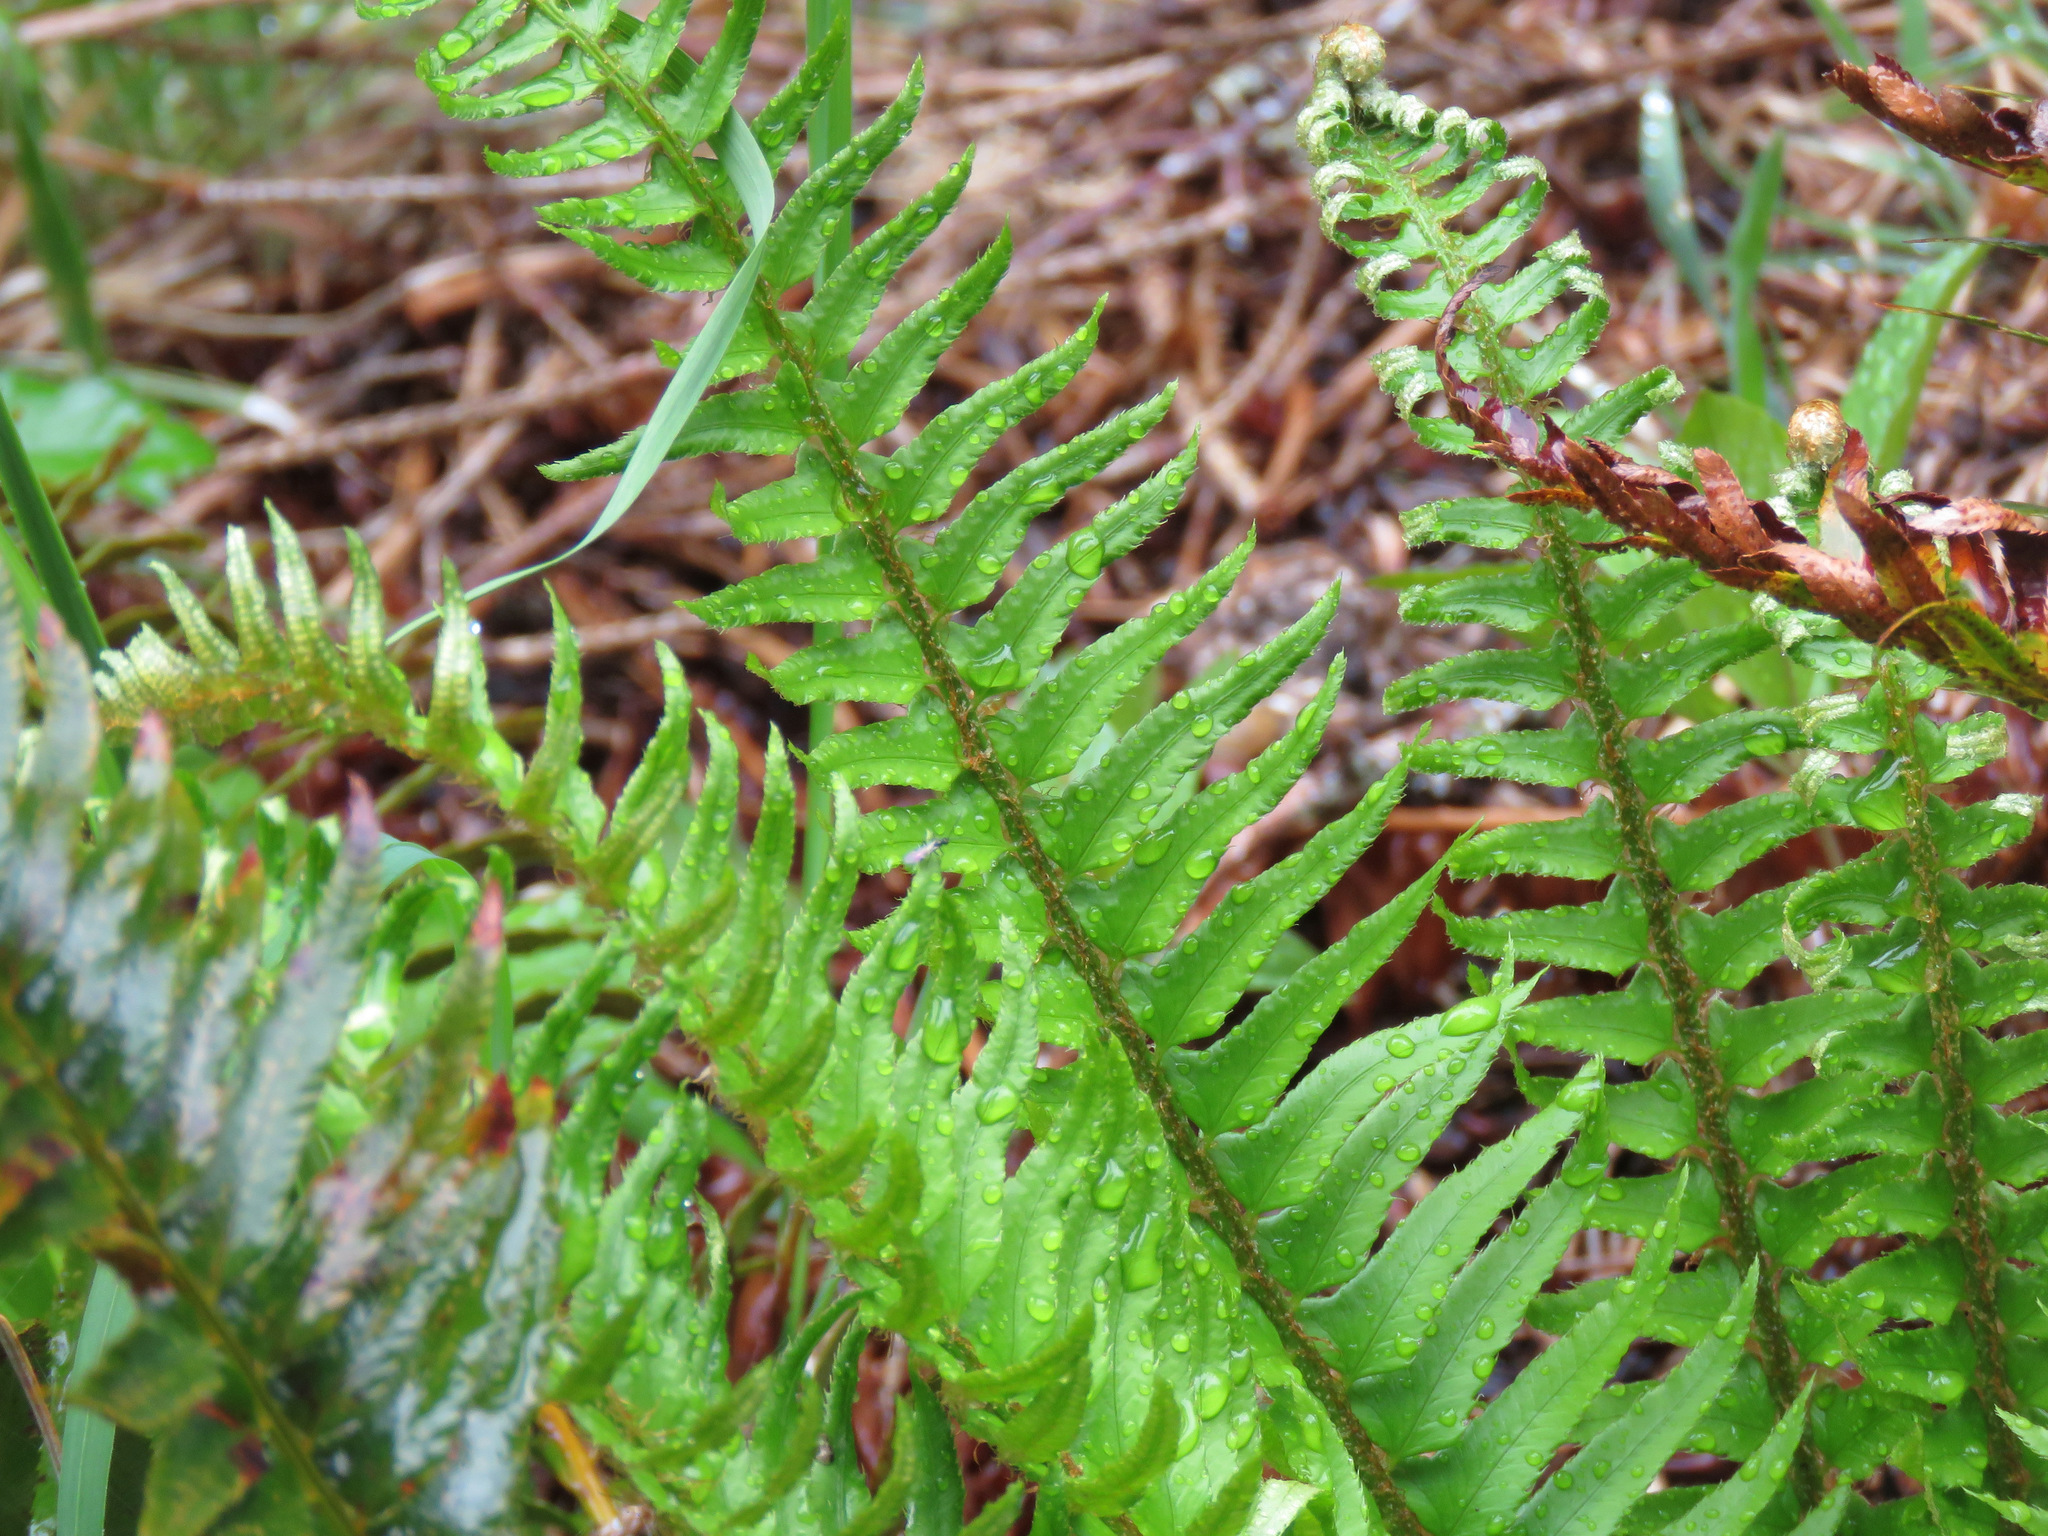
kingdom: Plantae
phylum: Tracheophyta
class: Polypodiopsida
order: Polypodiales
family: Dryopteridaceae
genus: Polystichum
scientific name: Polystichum munitum
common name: Western sword-fern
